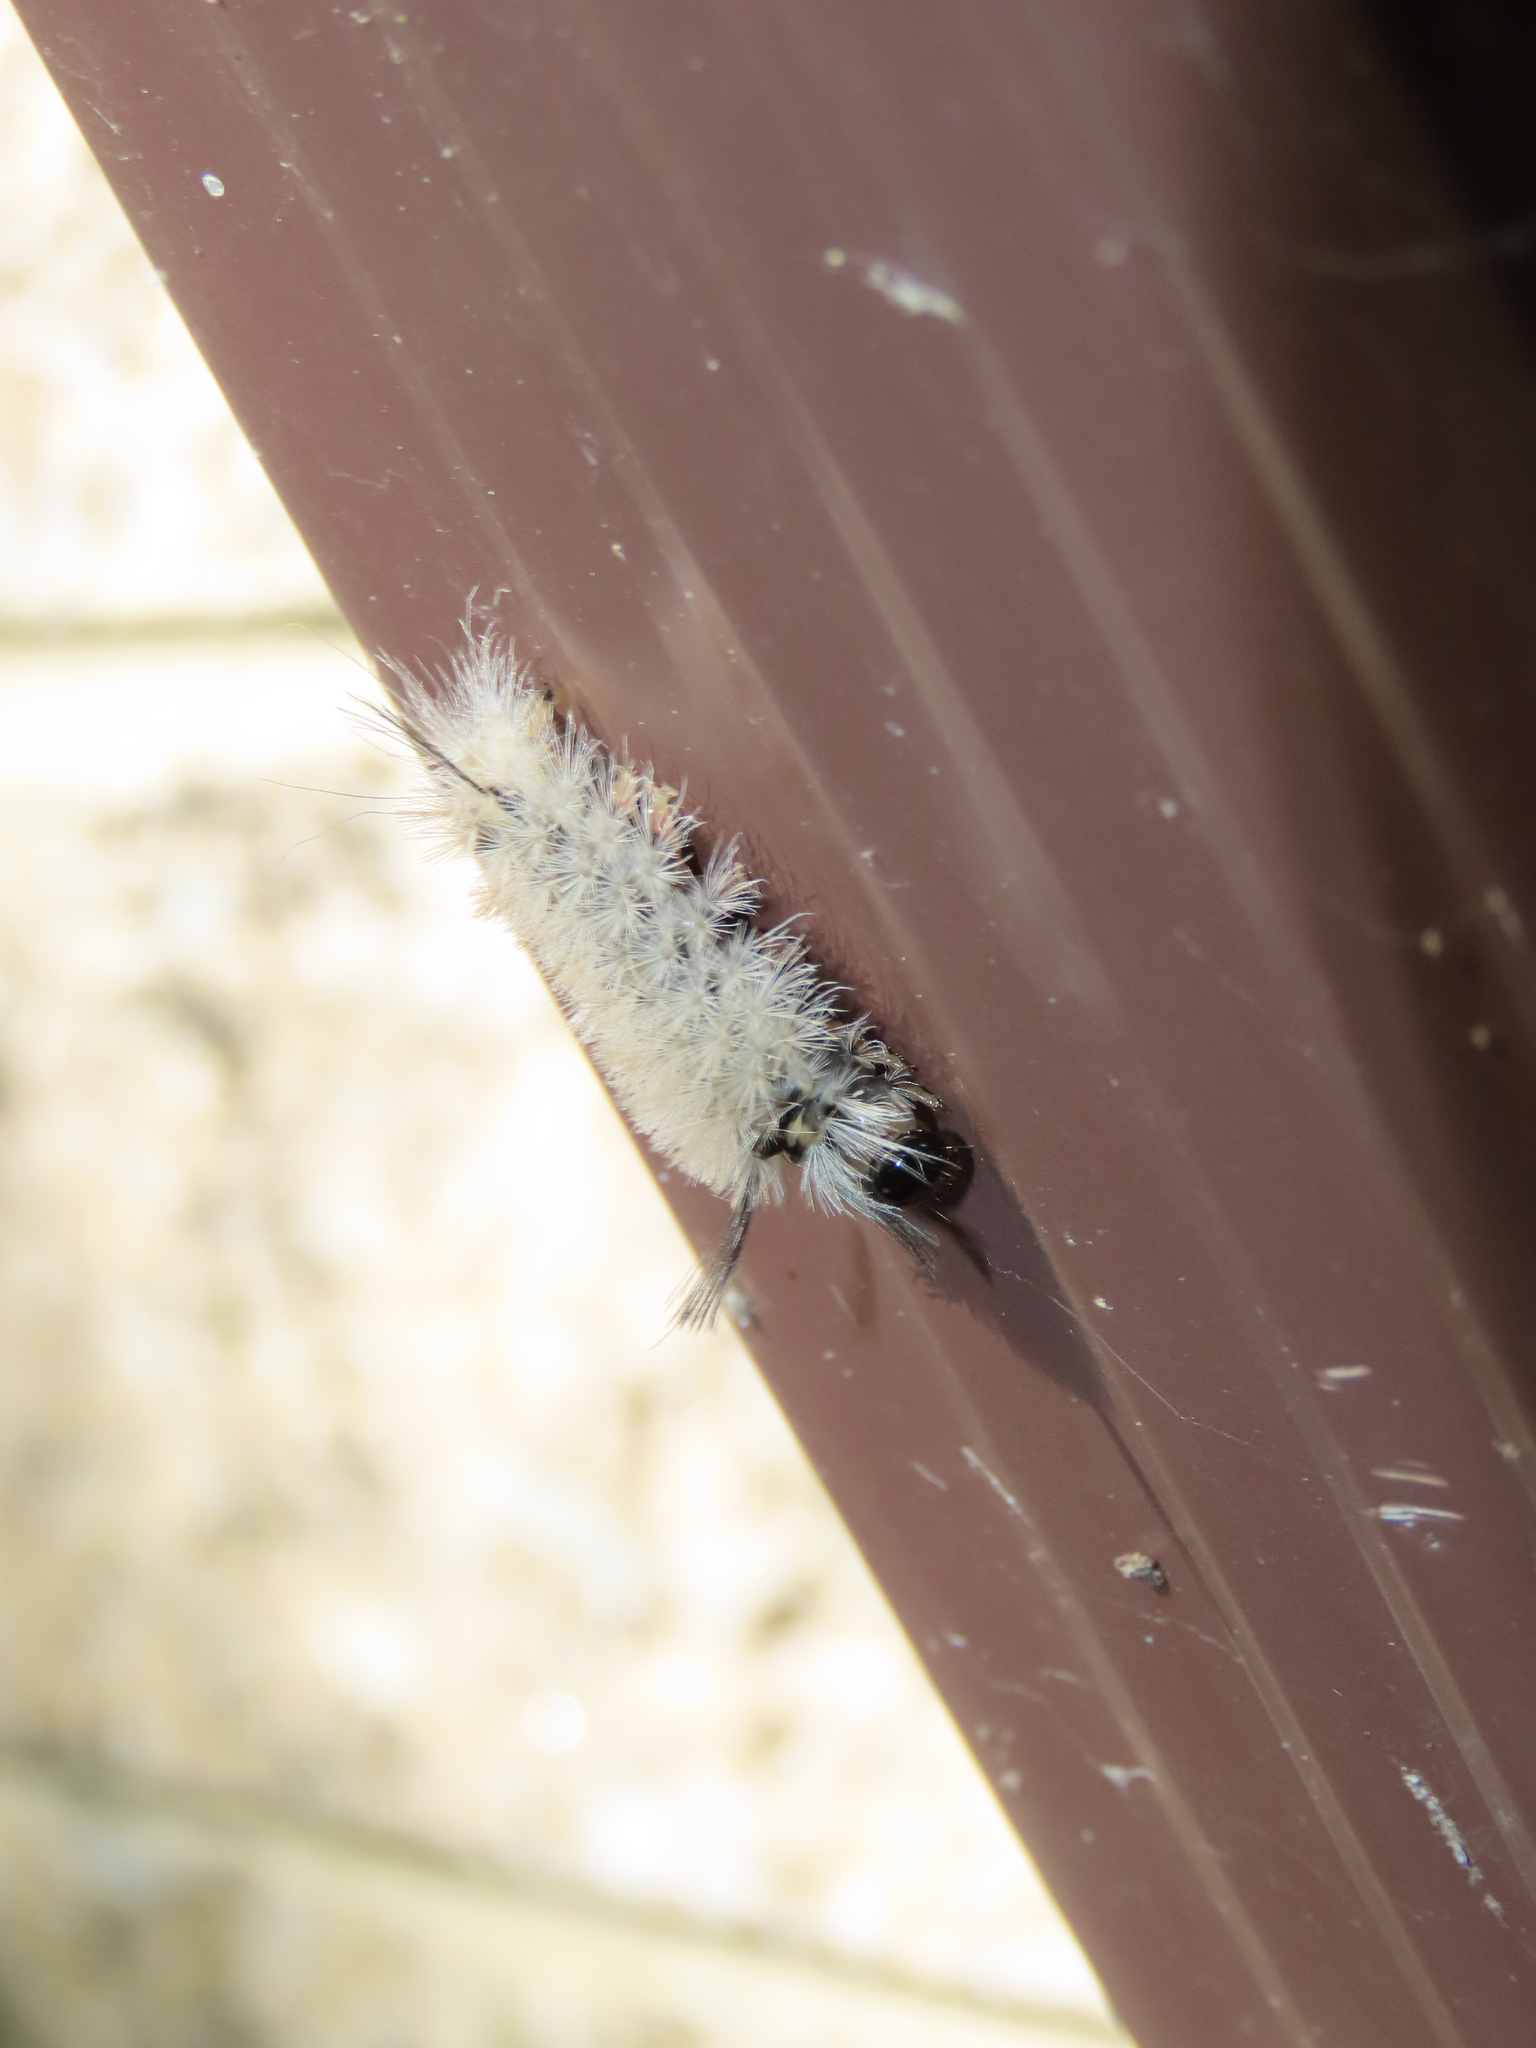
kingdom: Animalia
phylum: Arthropoda
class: Insecta
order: Lepidoptera
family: Erebidae
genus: Halysidota
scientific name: Halysidota tessellaris
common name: Banded tussock moth
